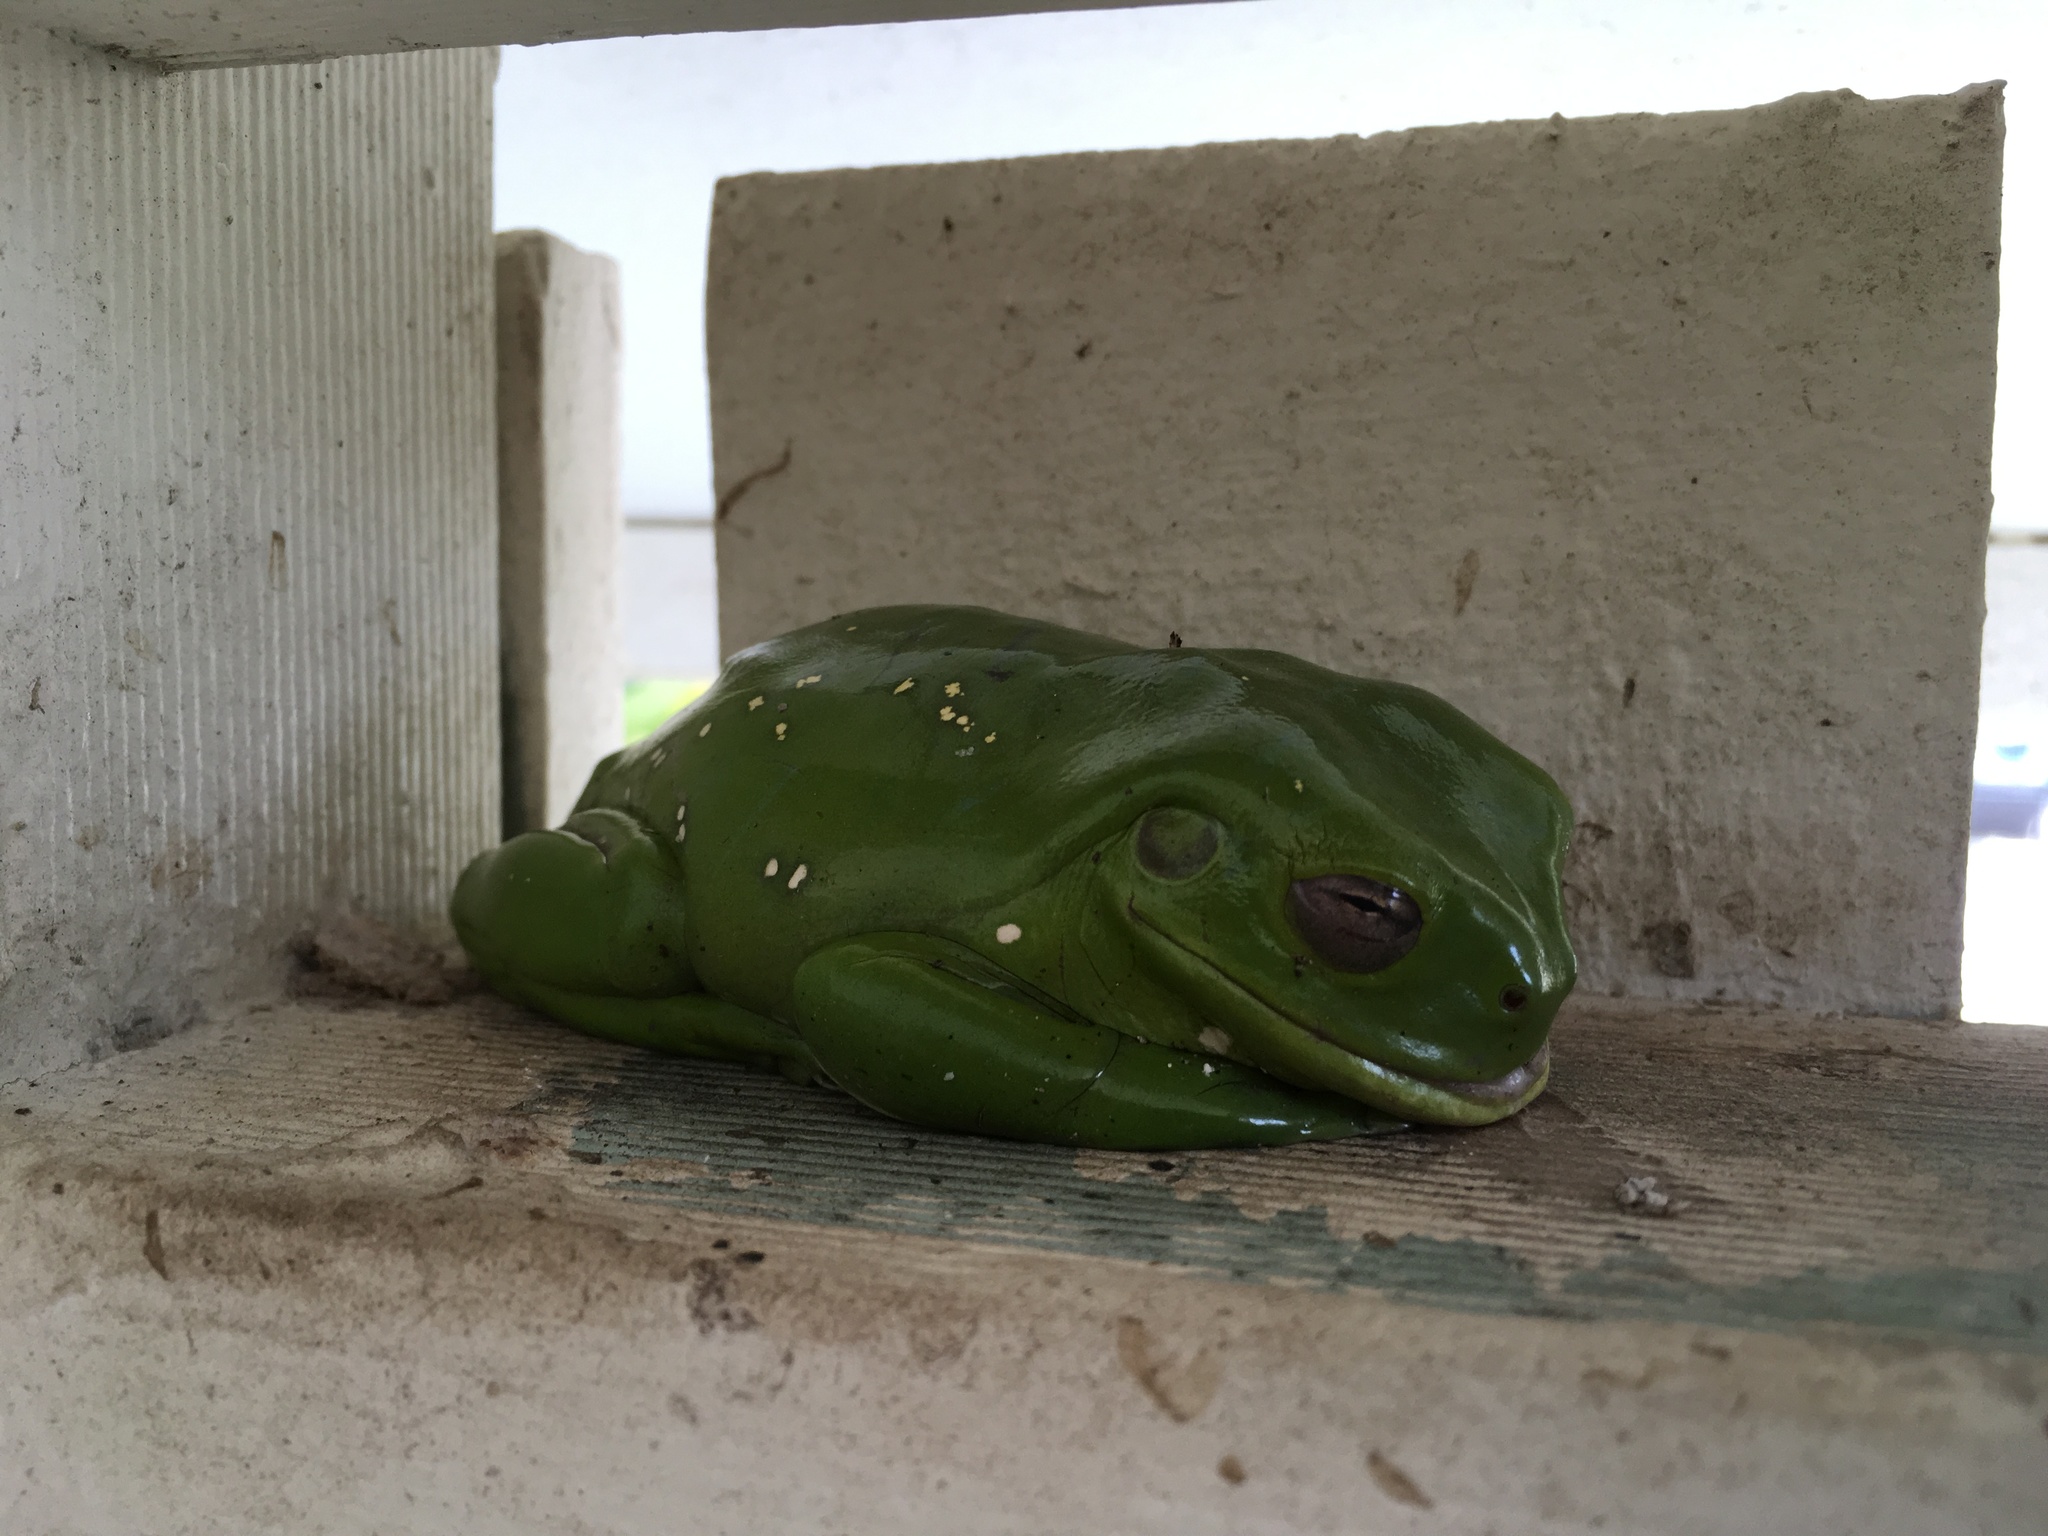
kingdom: Animalia
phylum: Chordata
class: Amphibia
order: Anura
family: Pelodryadidae
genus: Ranoidea
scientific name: Ranoidea caerulea
